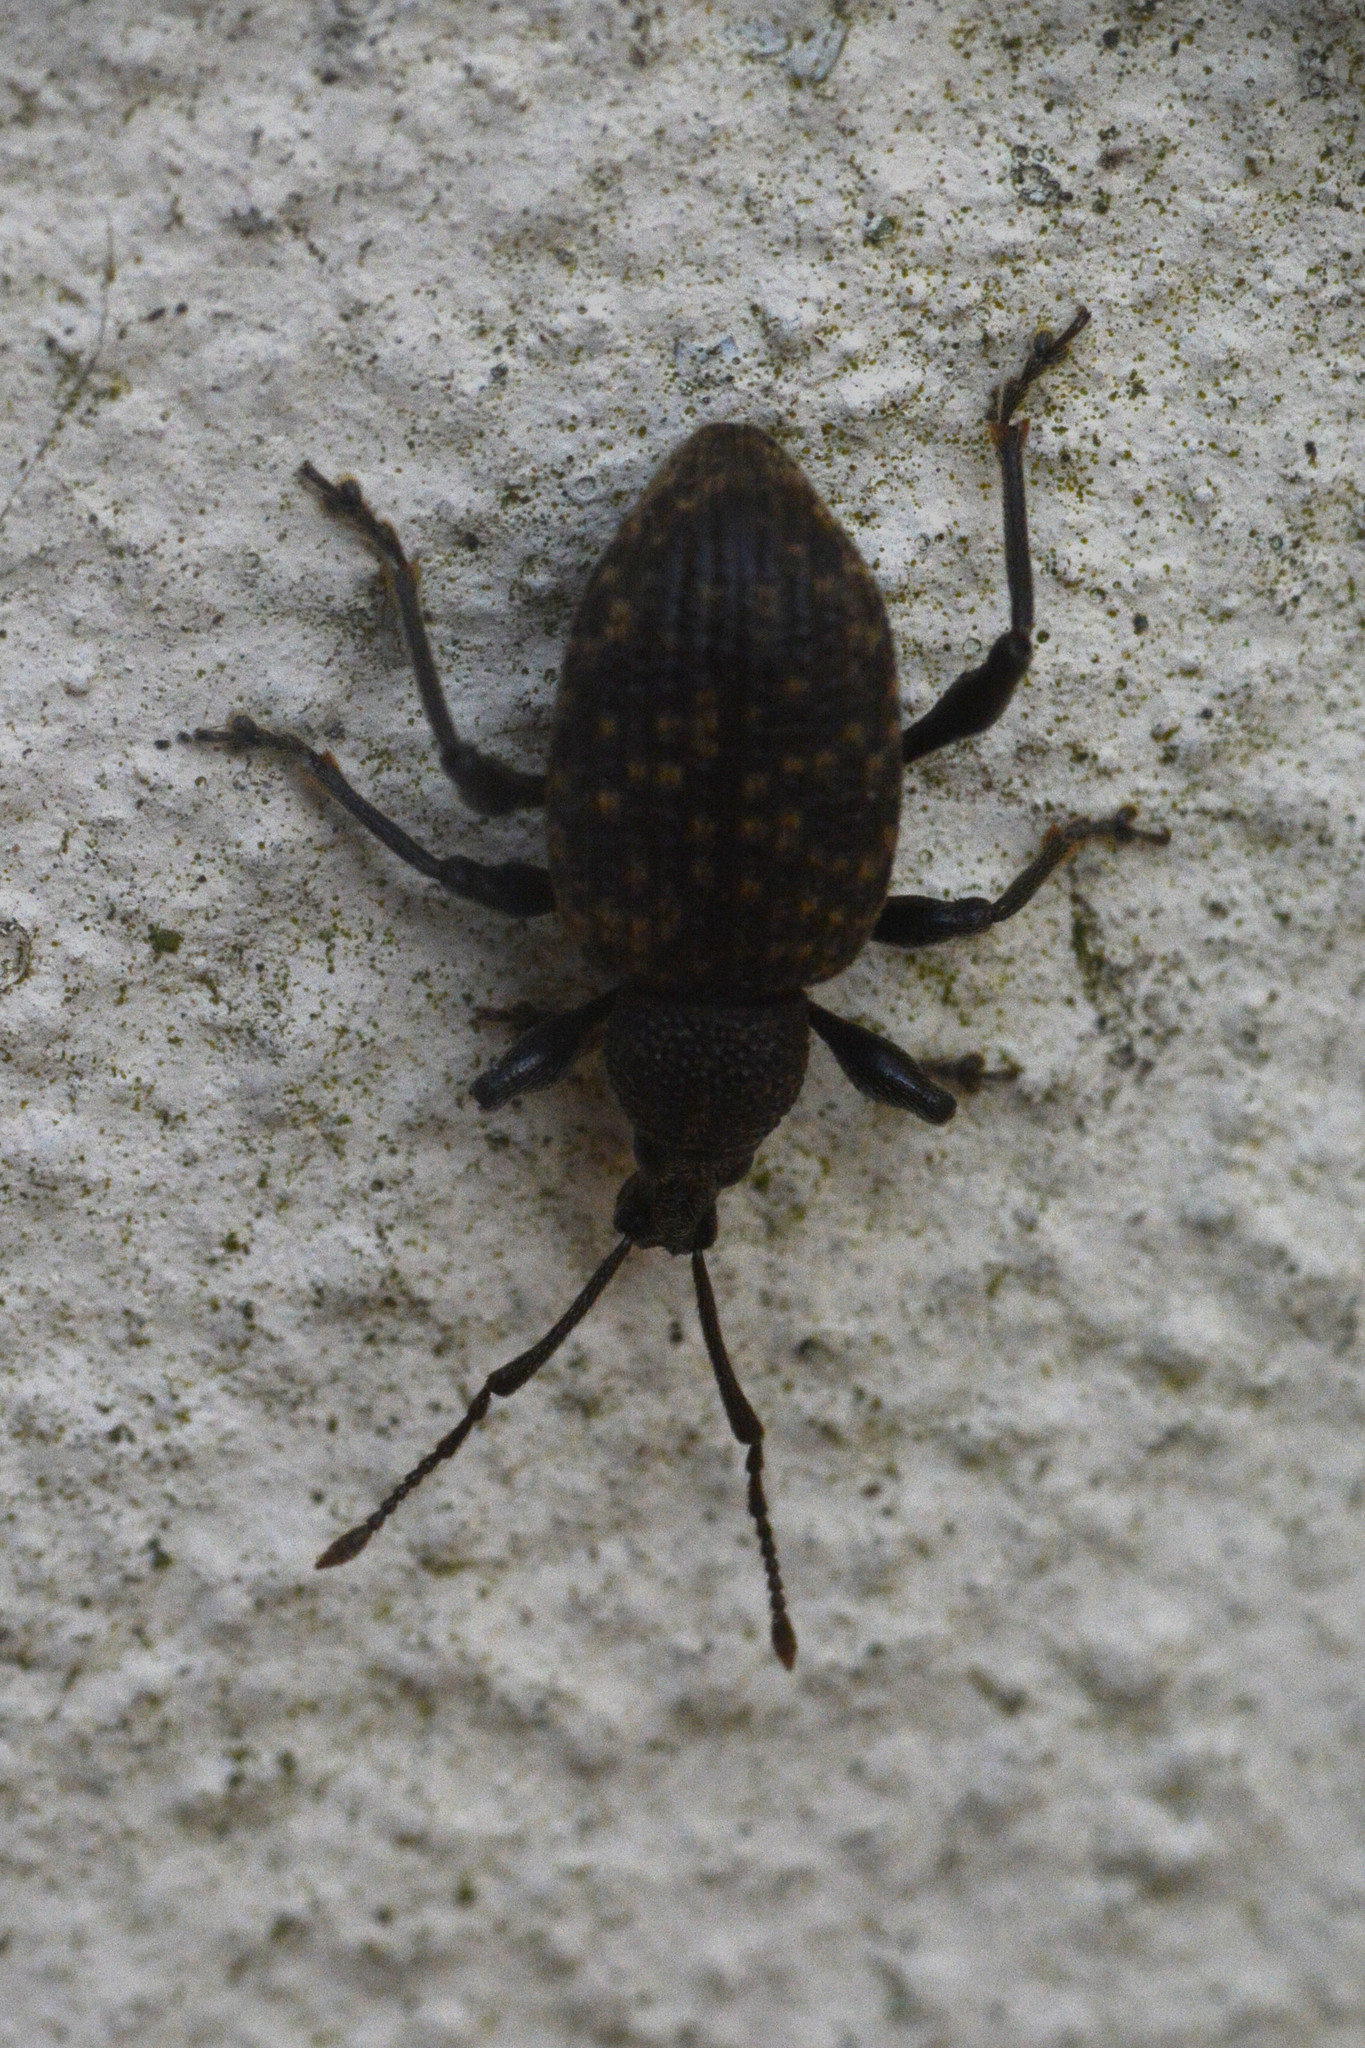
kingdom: Animalia
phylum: Arthropoda
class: Insecta
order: Coleoptera
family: Curculionidae
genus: Otiorhynchus
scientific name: Otiorhynchus sulcatus
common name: Black vine weevil
